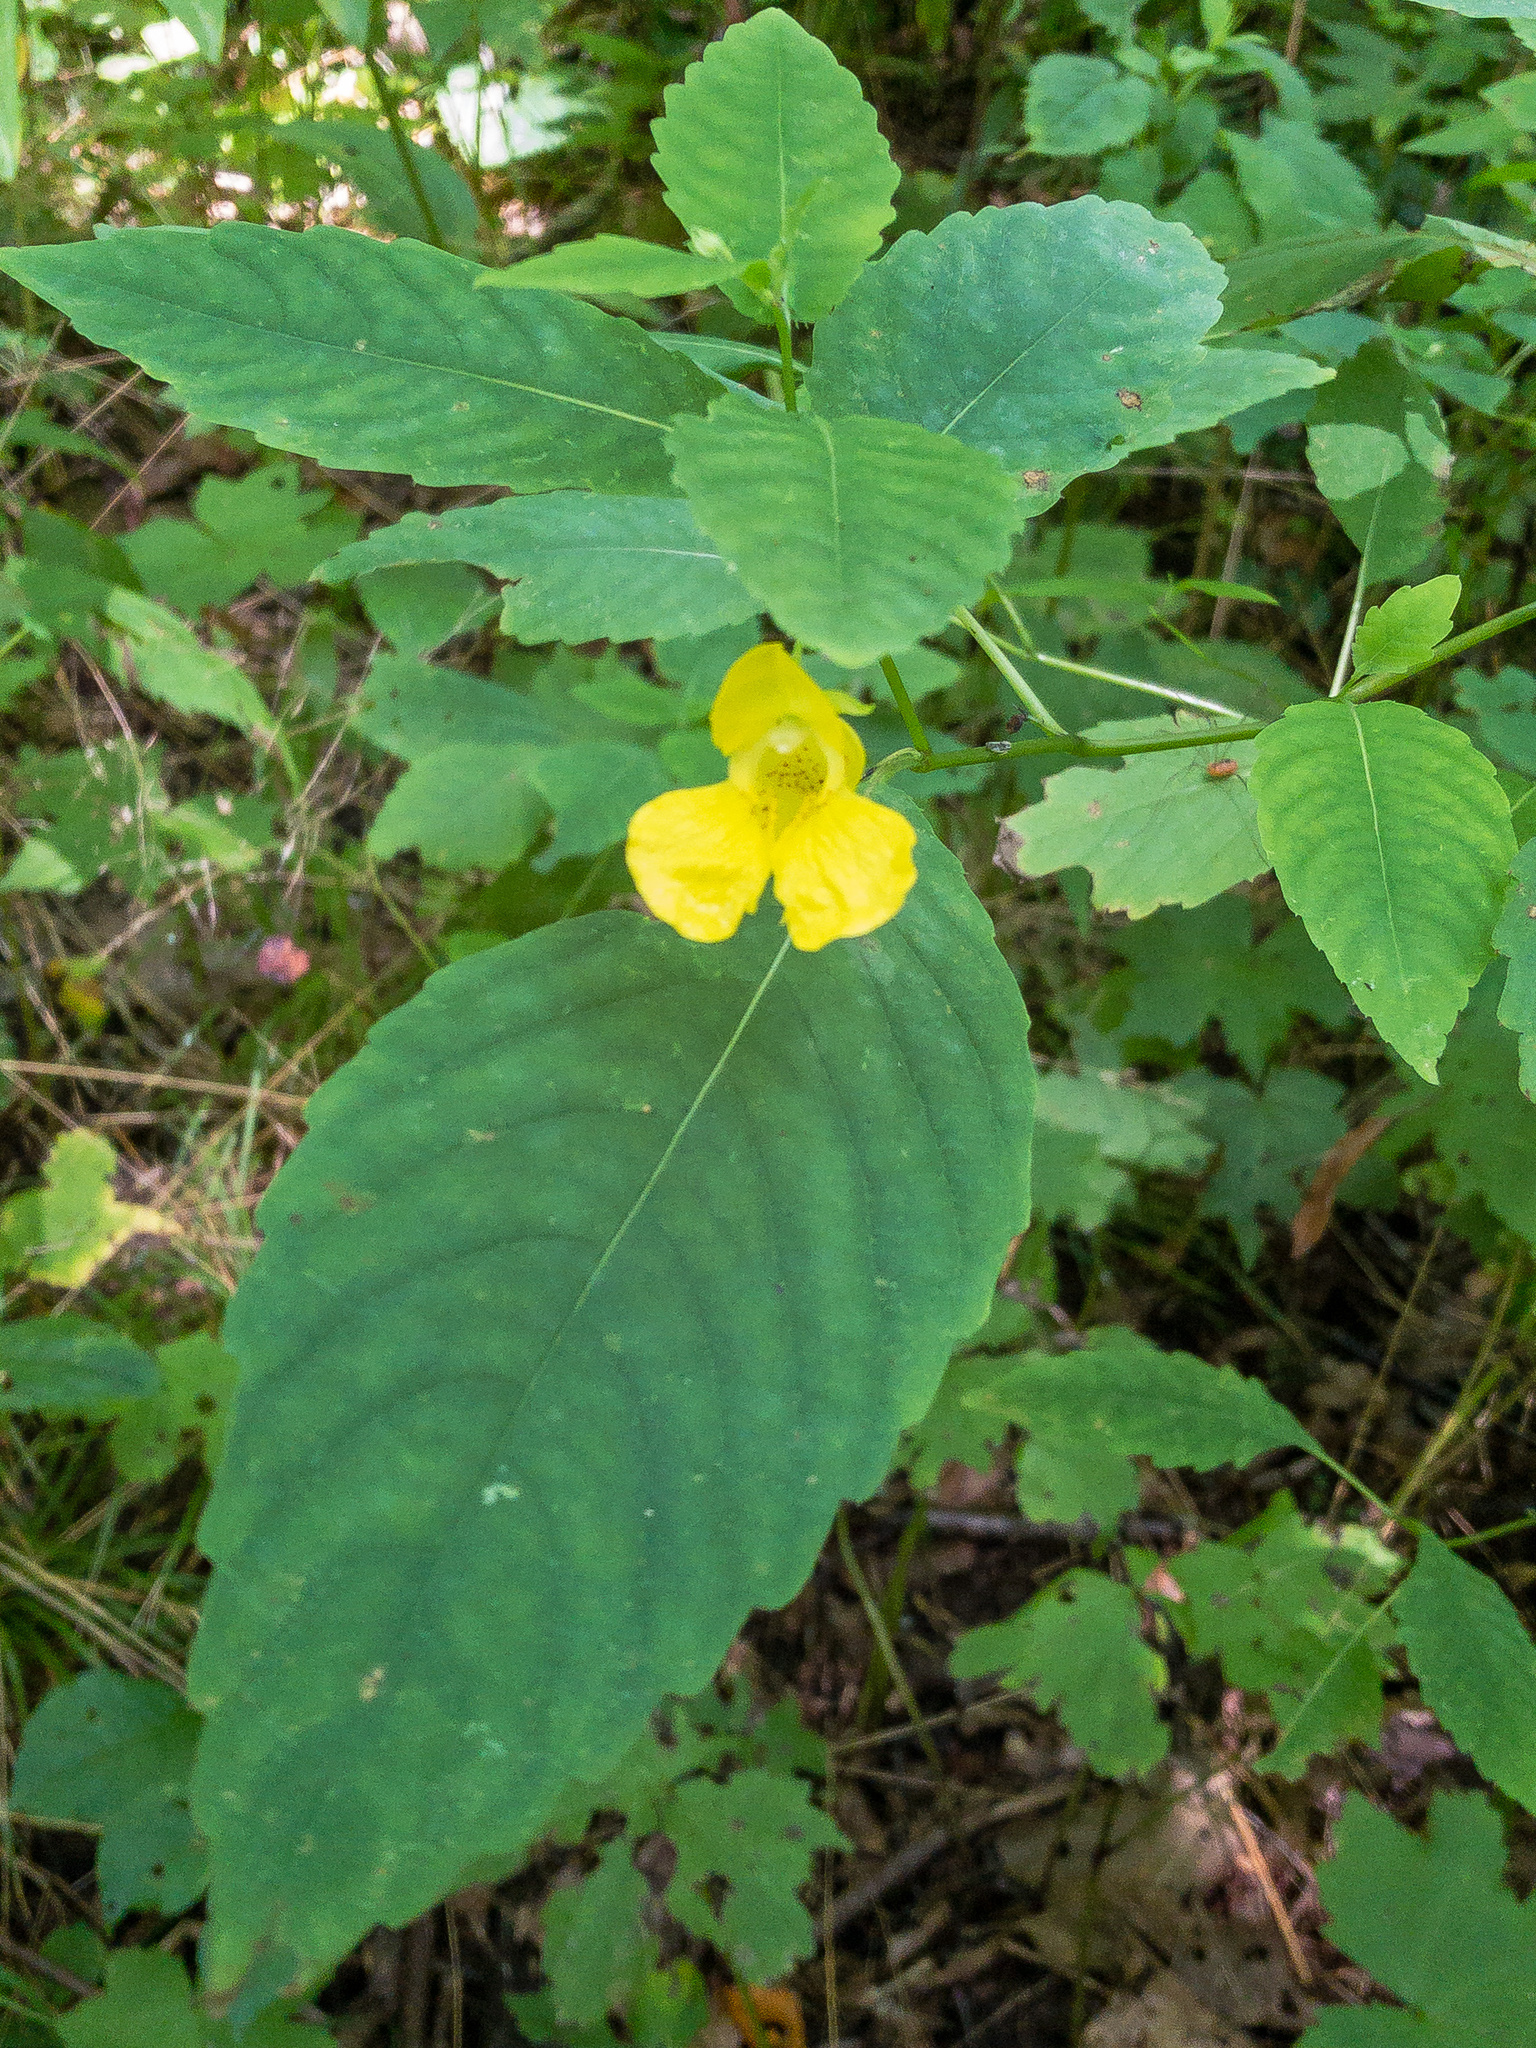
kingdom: Plantae
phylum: Tracheophyta
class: Magnoliopsida
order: Ericales
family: Balsaminaceae
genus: Impatiens
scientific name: Impatiens pallida
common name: Pale snapweed
